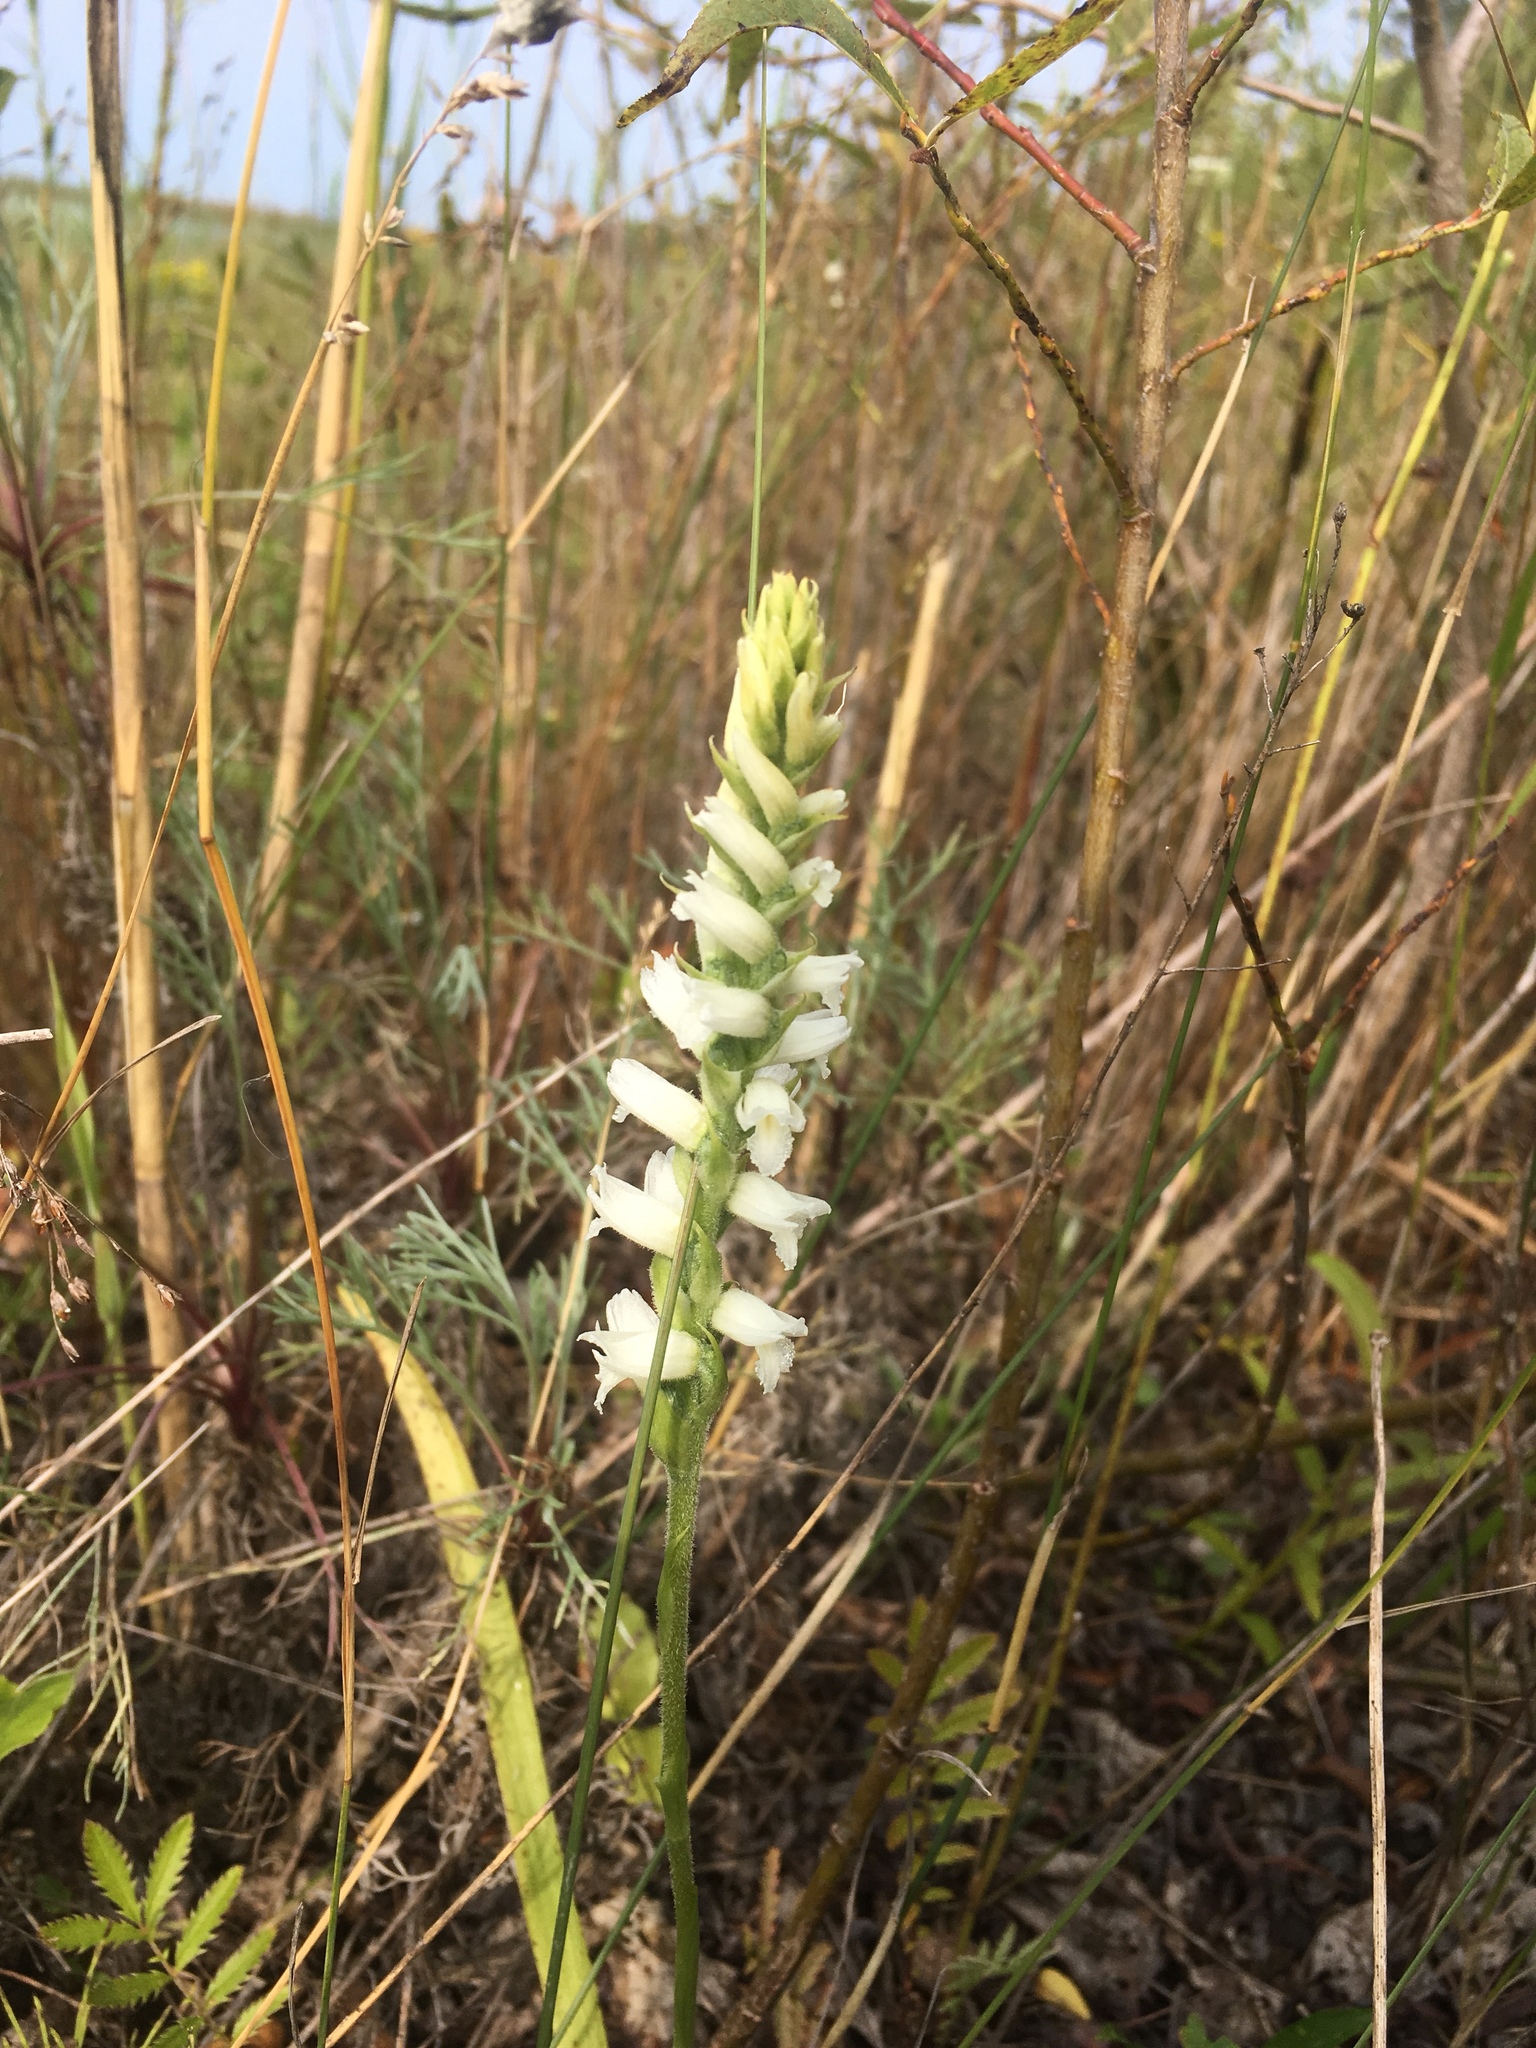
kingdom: Plantae
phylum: Tracheophyta
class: Liliopsida
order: Asparagales
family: Orchidaceae
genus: Spiranthes
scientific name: Spiranthes incurva
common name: Sphinx ladies'-tresses
